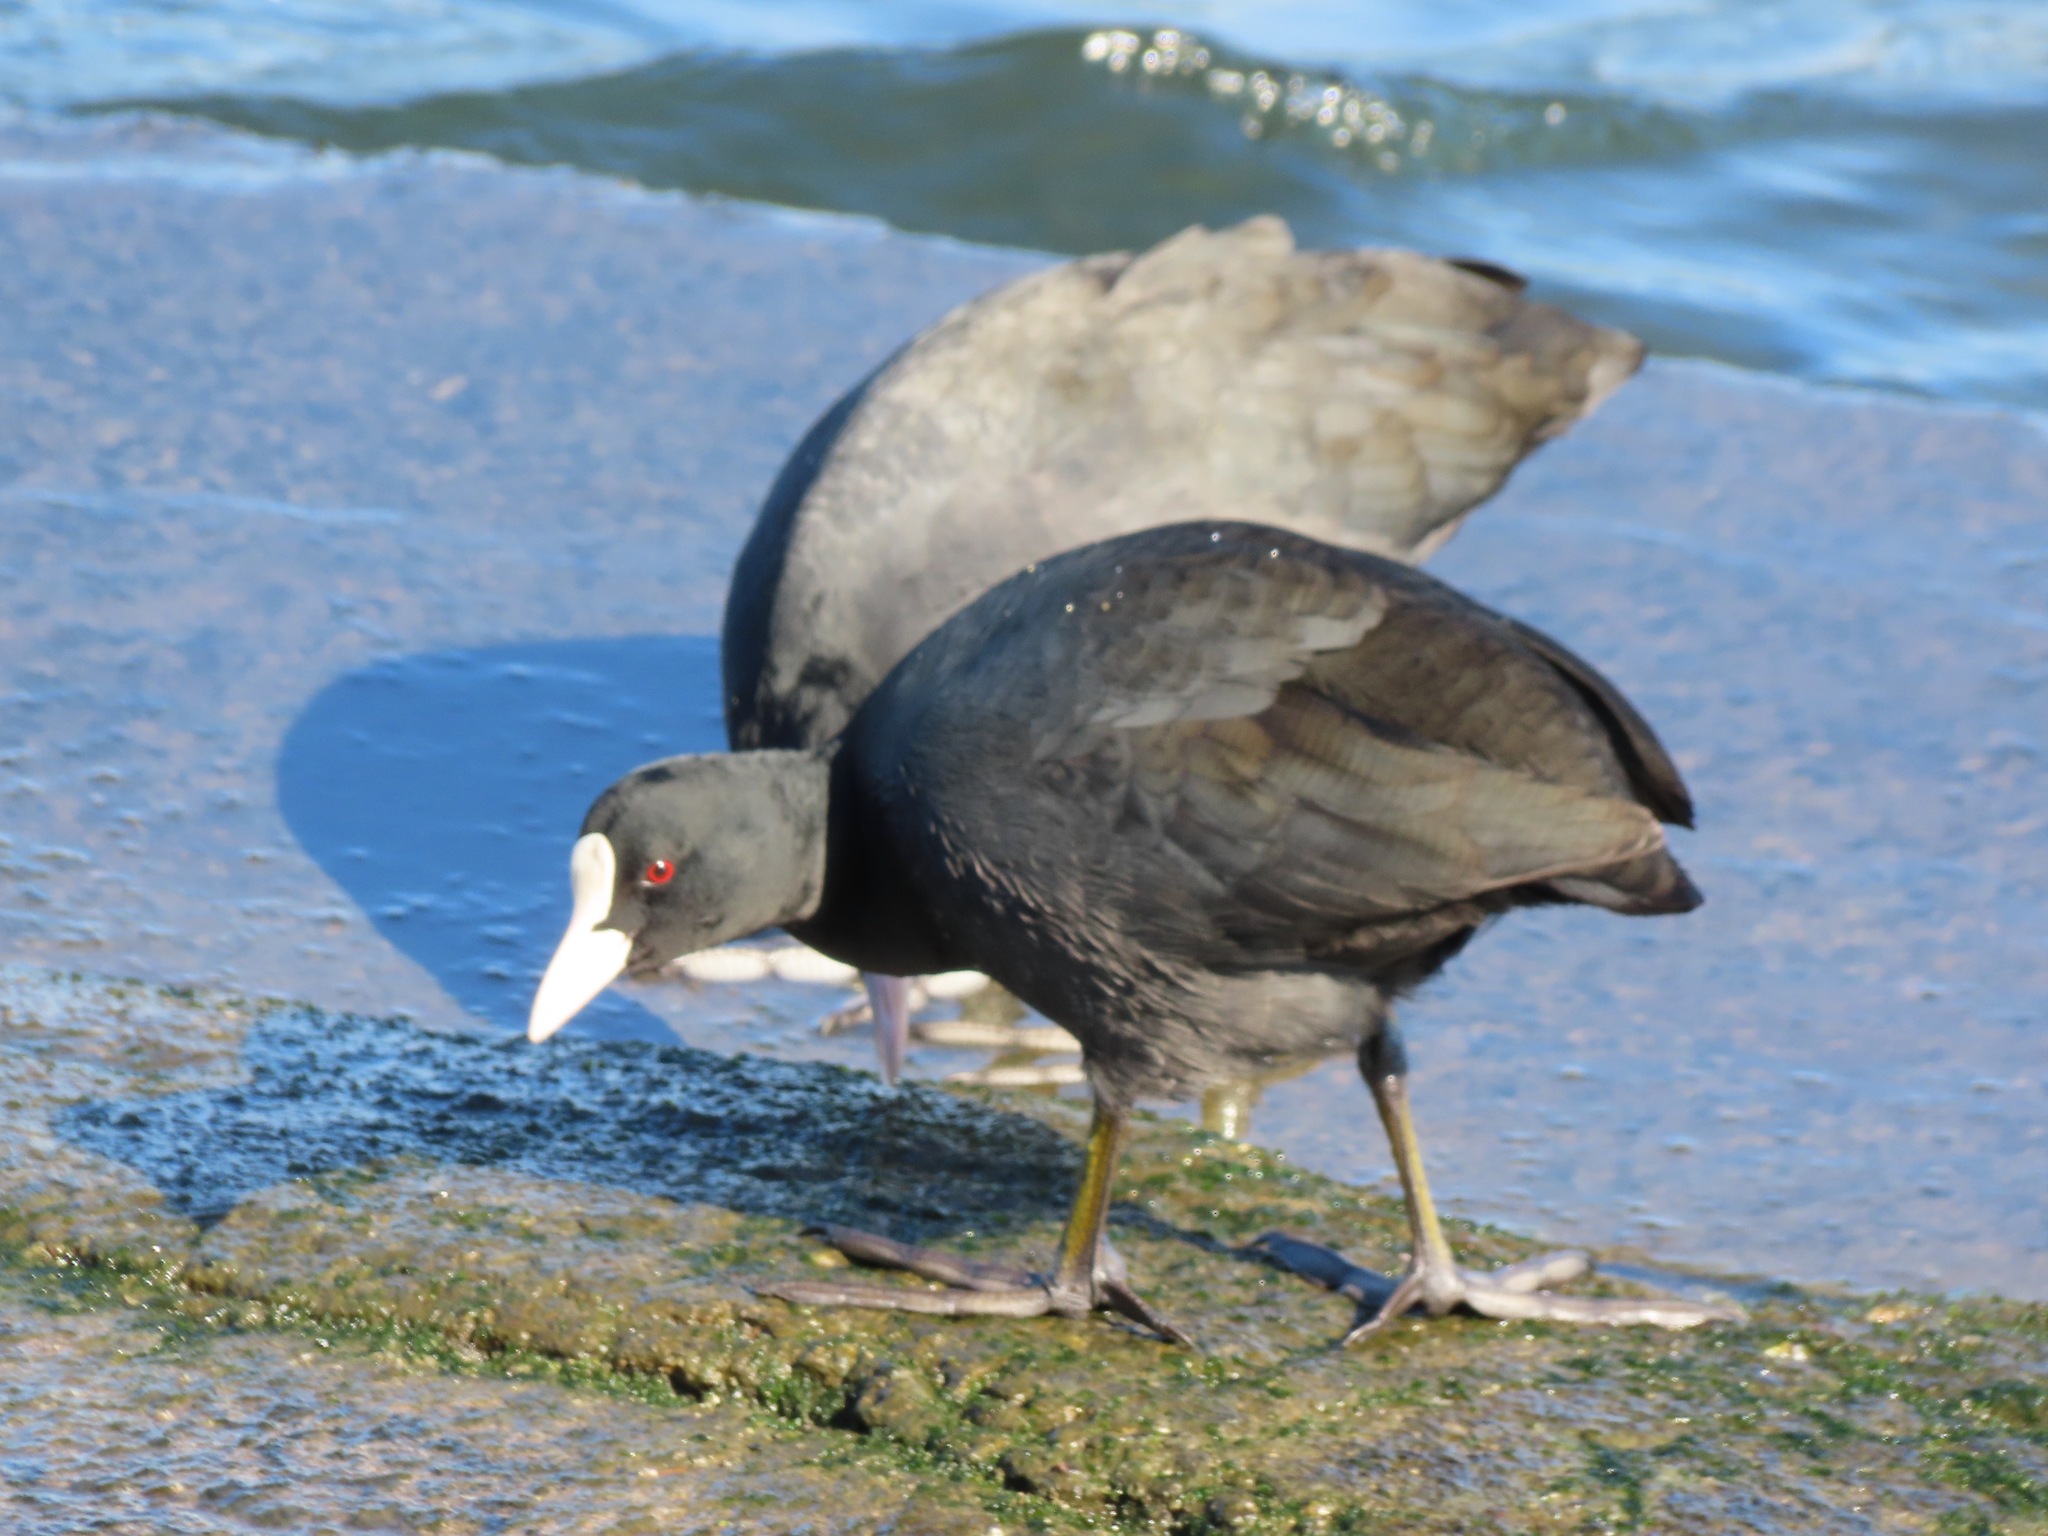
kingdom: Animalia
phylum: Chordata
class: Aves
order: Gruiformes
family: Rallidae
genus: Fulica
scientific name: Fulica atra
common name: Eurasian coot
